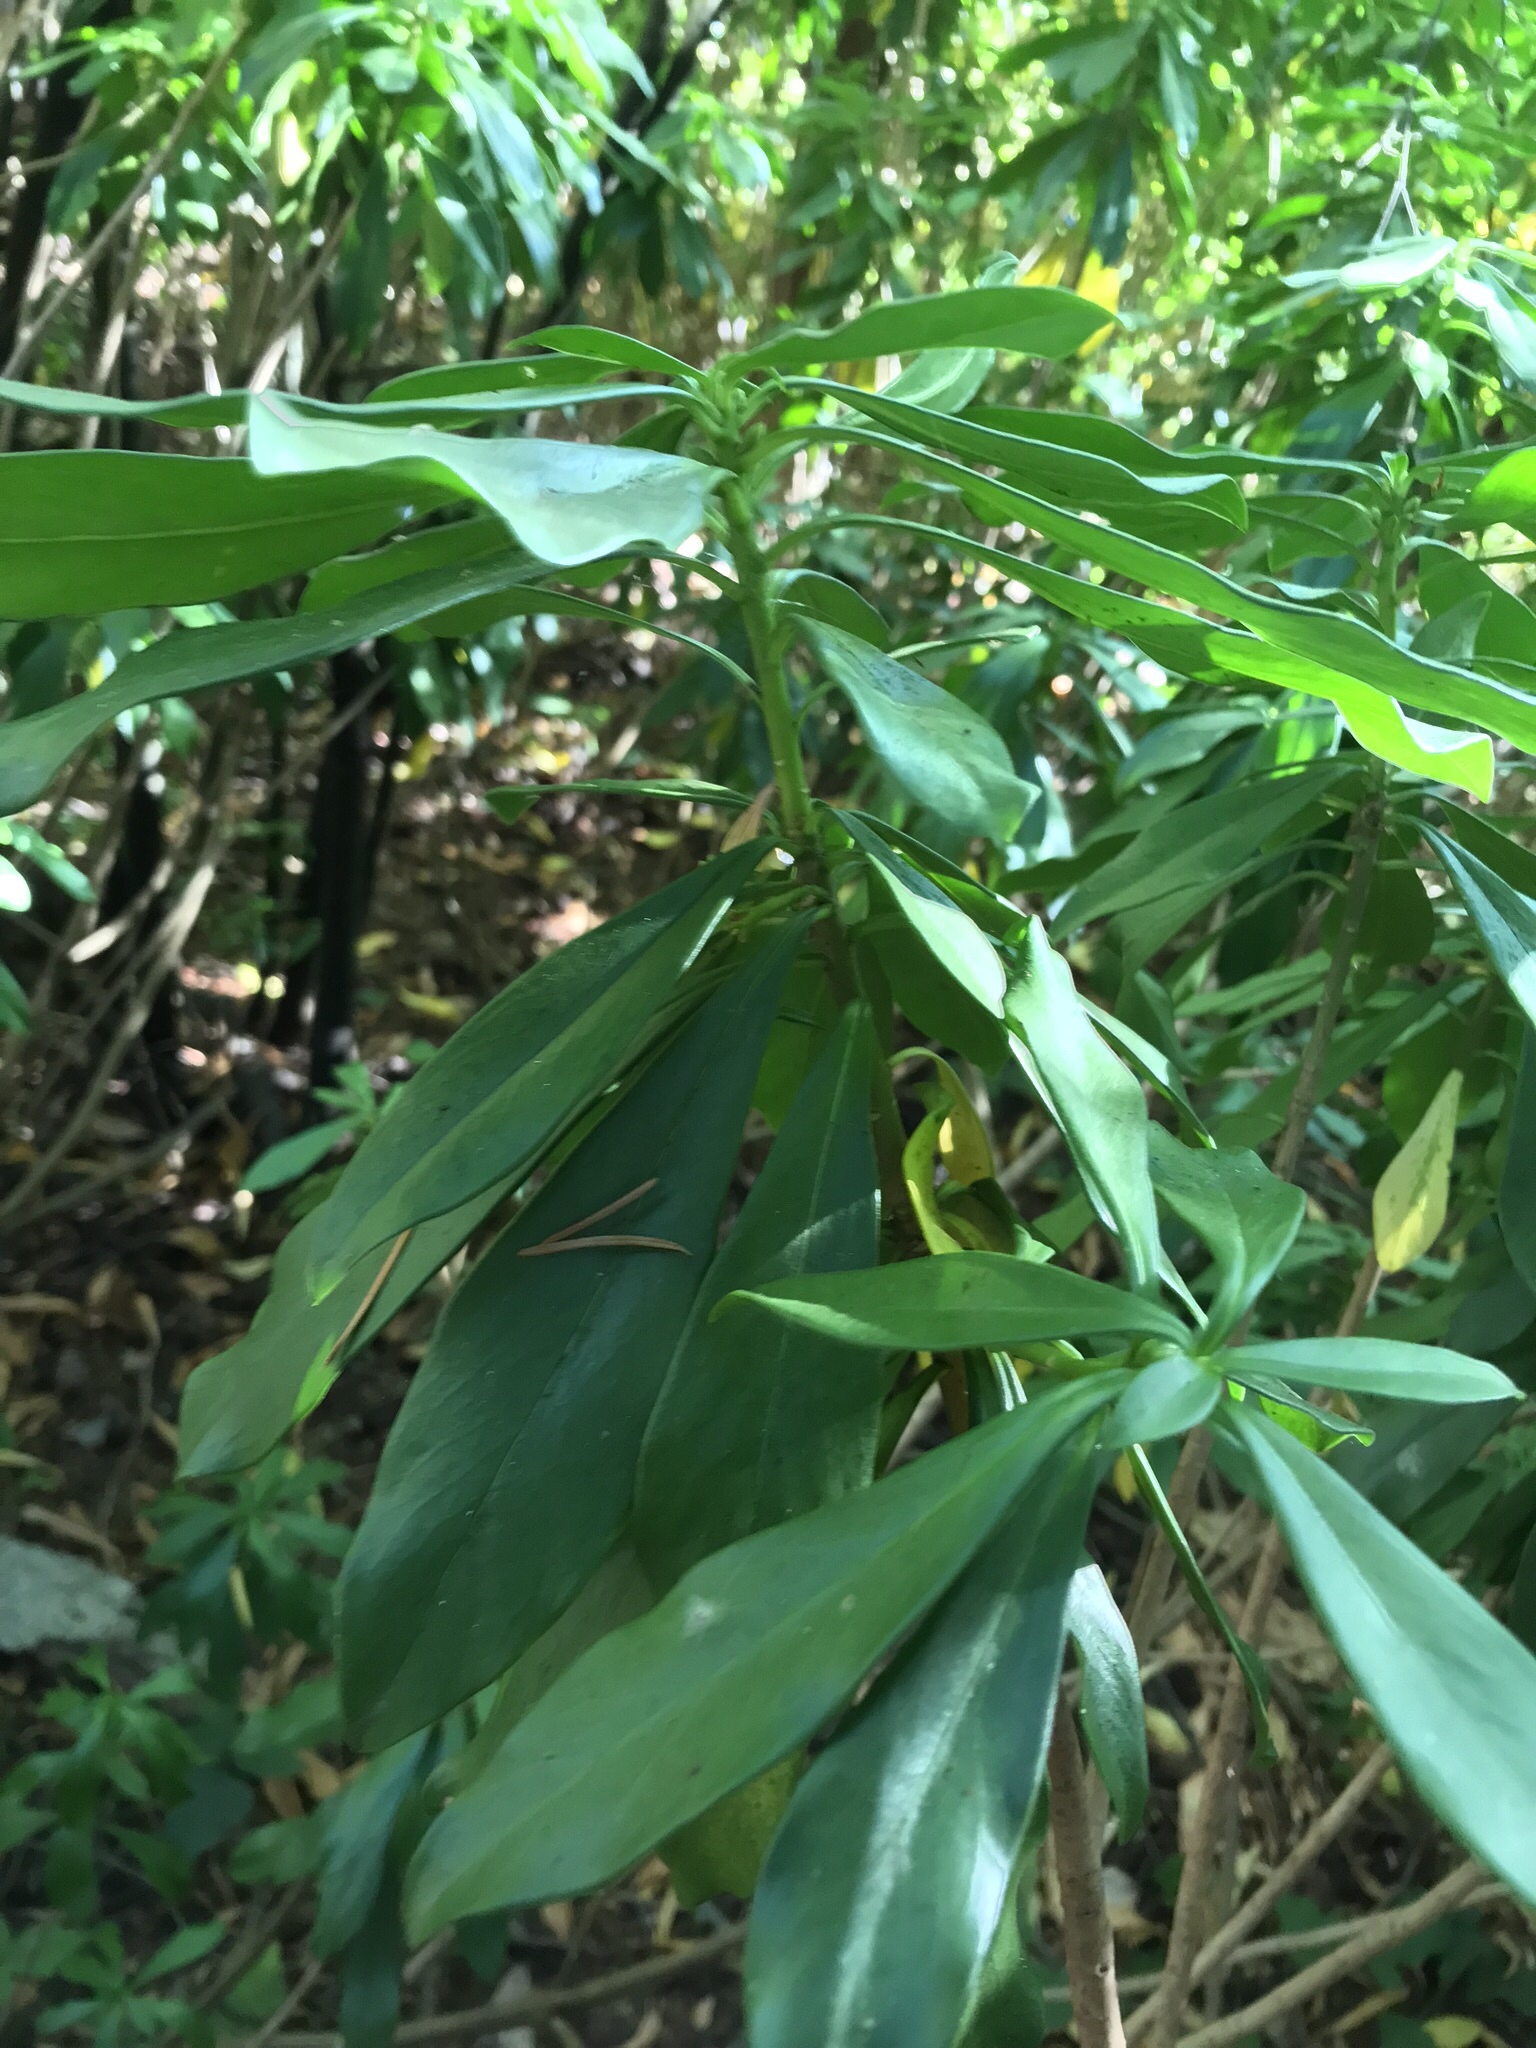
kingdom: Plantae
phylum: Tracheophyta
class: Magnoliopsida
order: Malvales
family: Thymelaeaceae
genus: Daphne
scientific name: Daphne laureola
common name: Spurge-laurel
